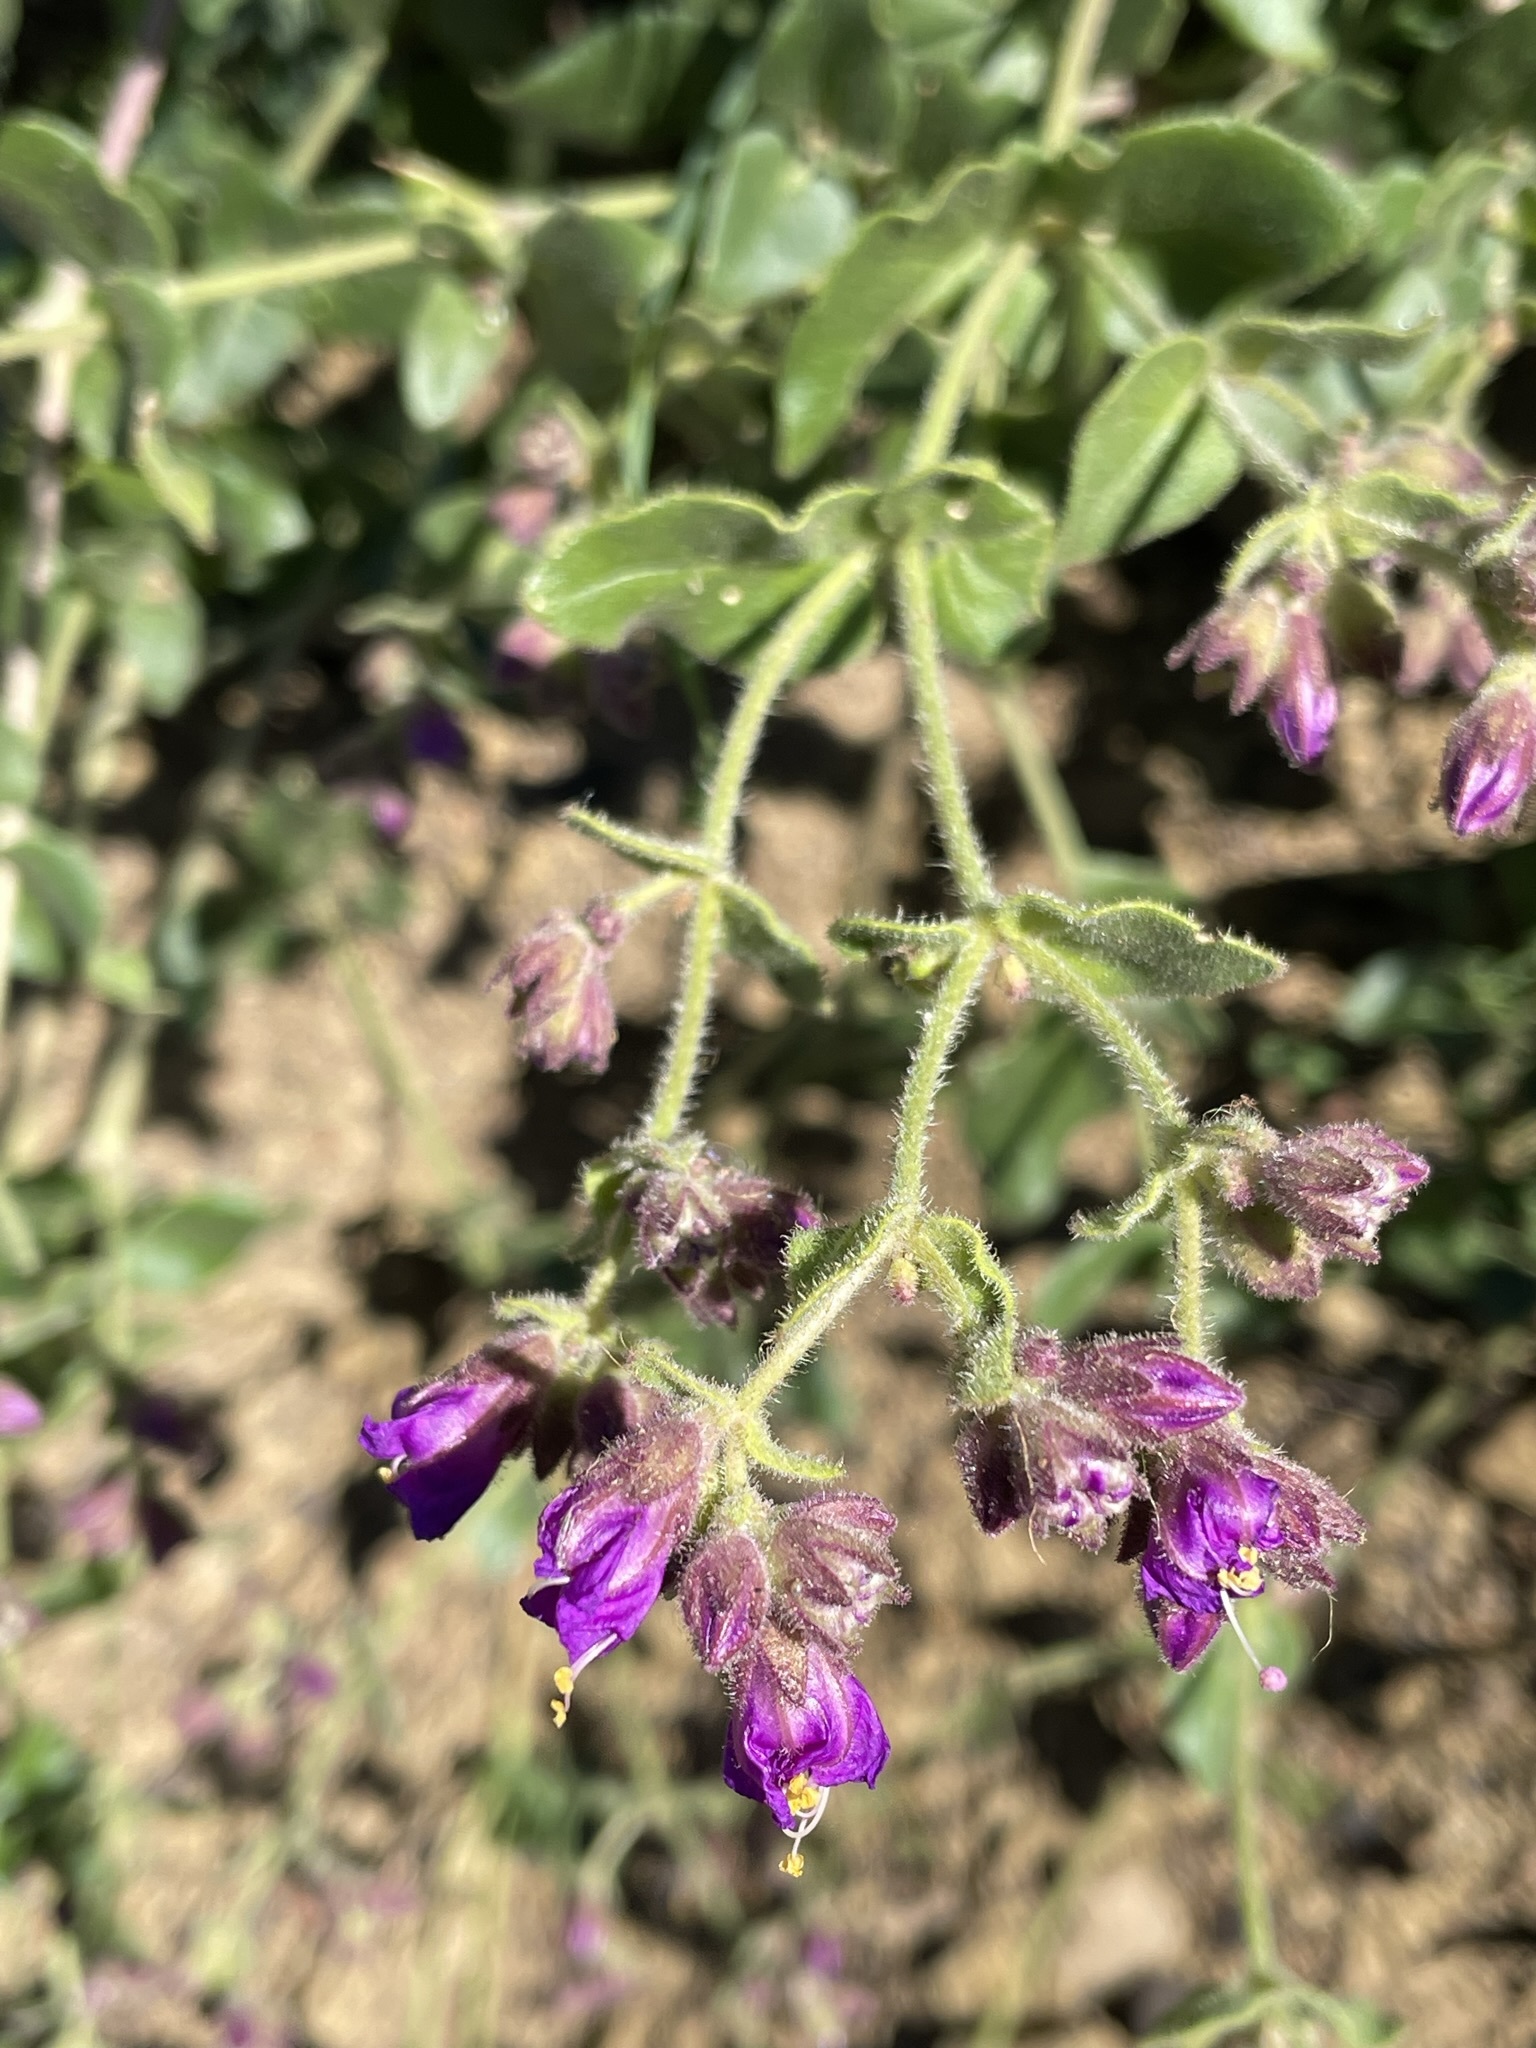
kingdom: Plantae
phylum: Tracheophyta
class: Magnoliopsida
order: Caryophyllales
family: Nyctaginaceae
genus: Mirabilis
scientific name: Mirabilis laevis
